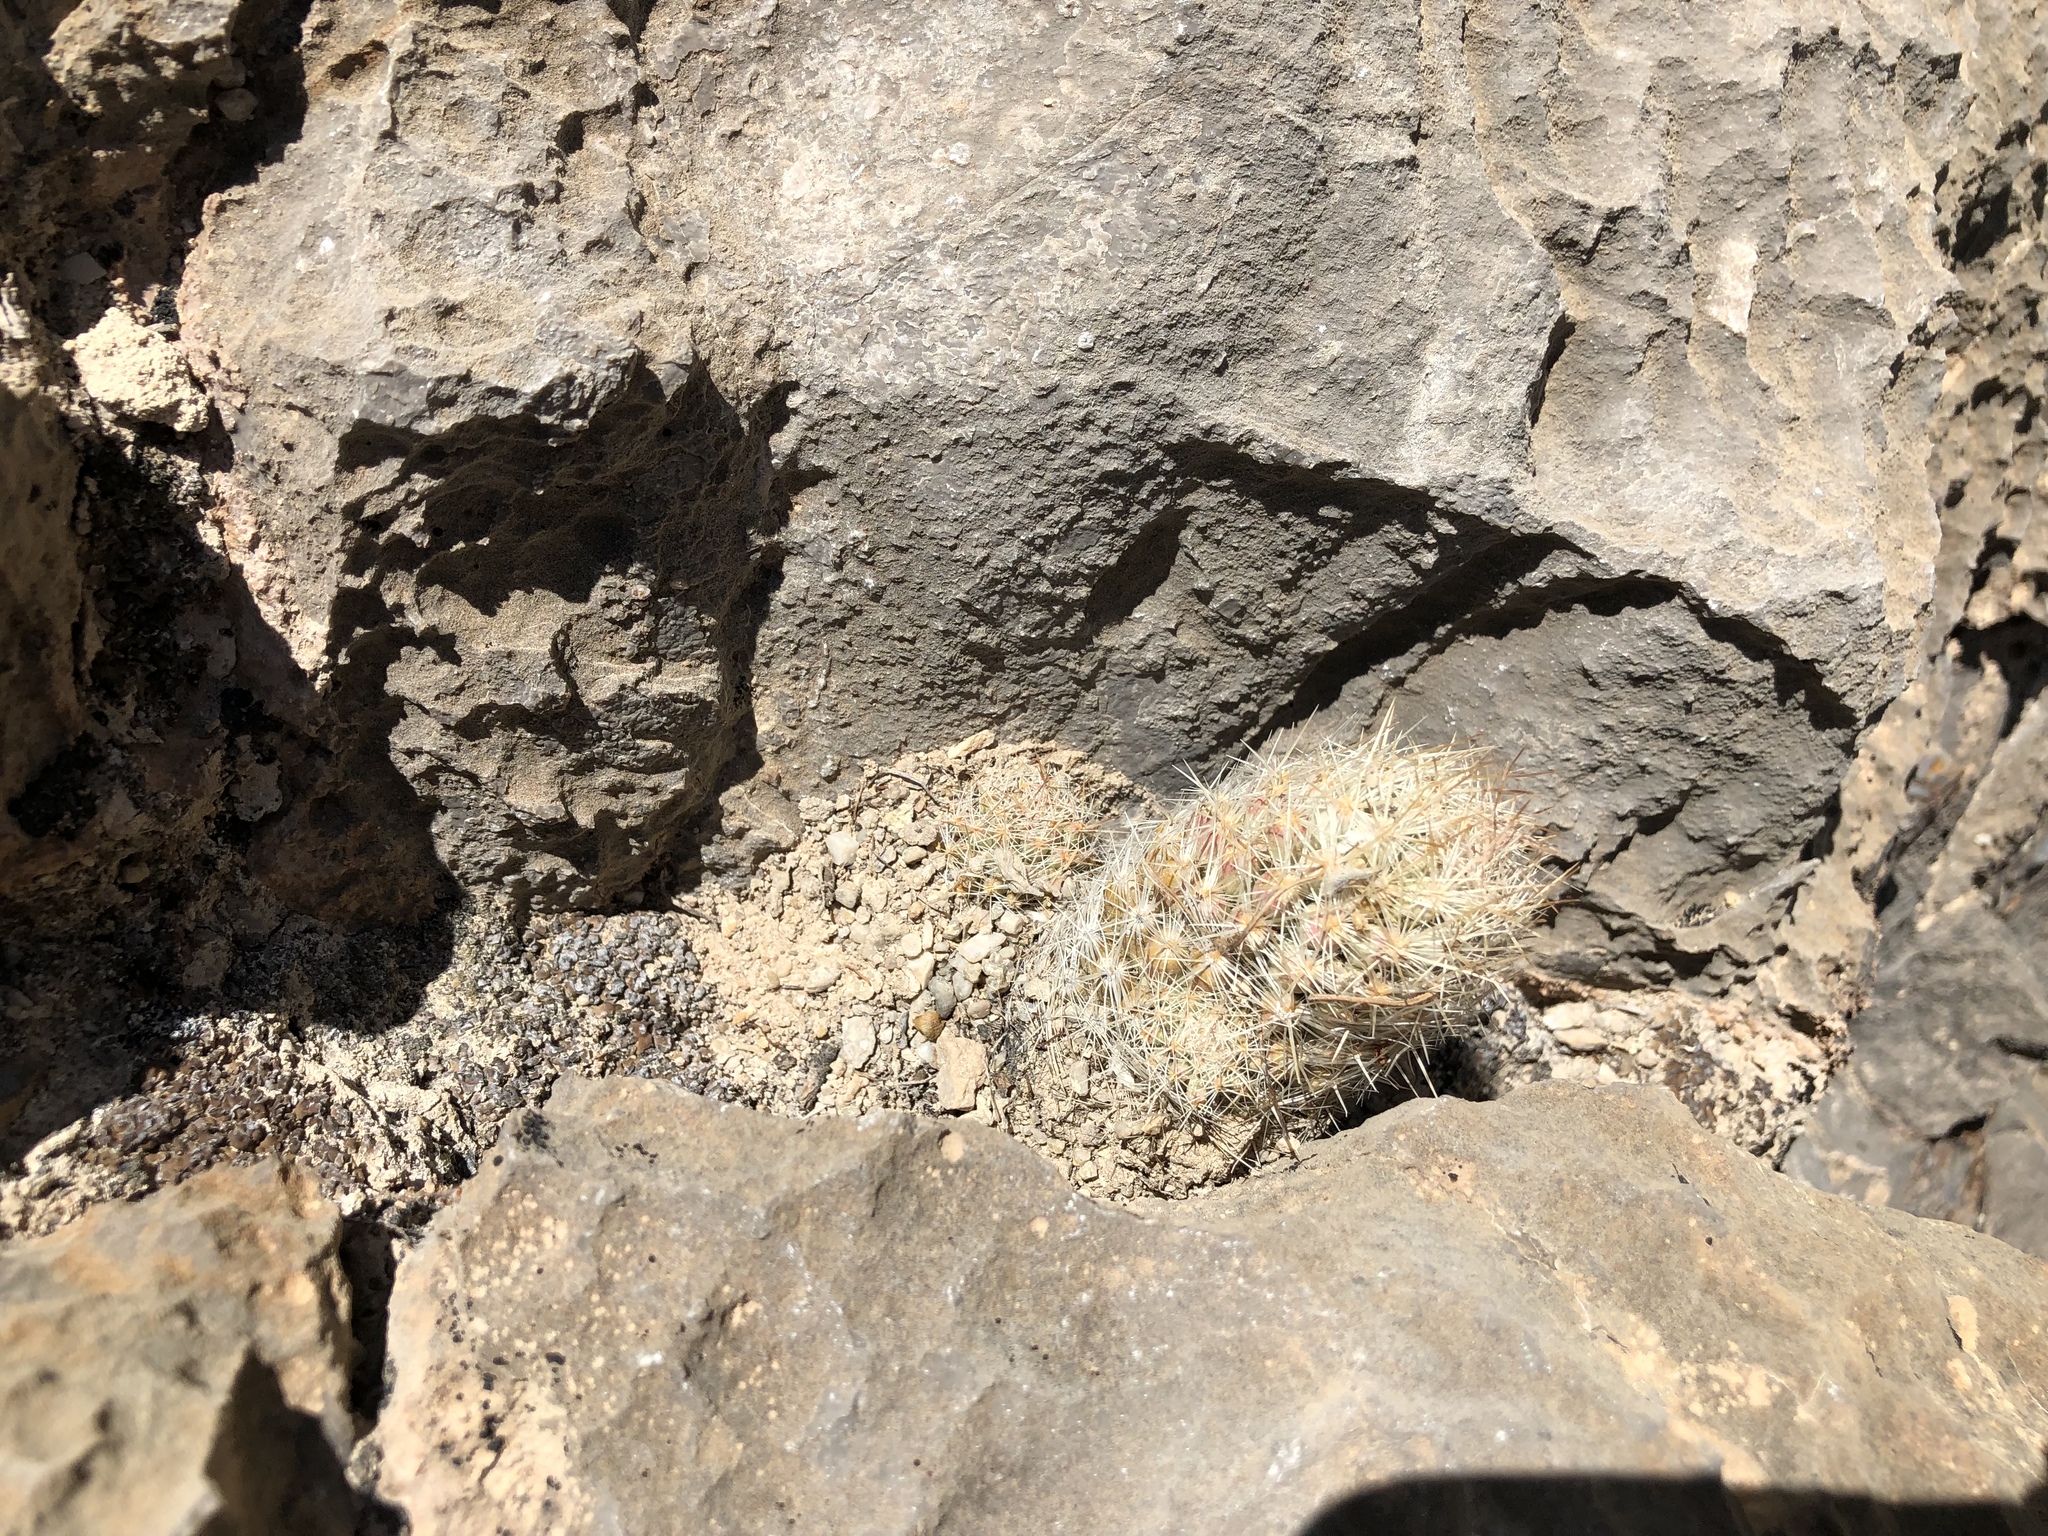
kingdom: Plantae
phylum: Tracheophyta
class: Magnoliopsida
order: Caryophyllales
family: Cactaceae
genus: Pelecyphora
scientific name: Pelecyphora tuberculosa
